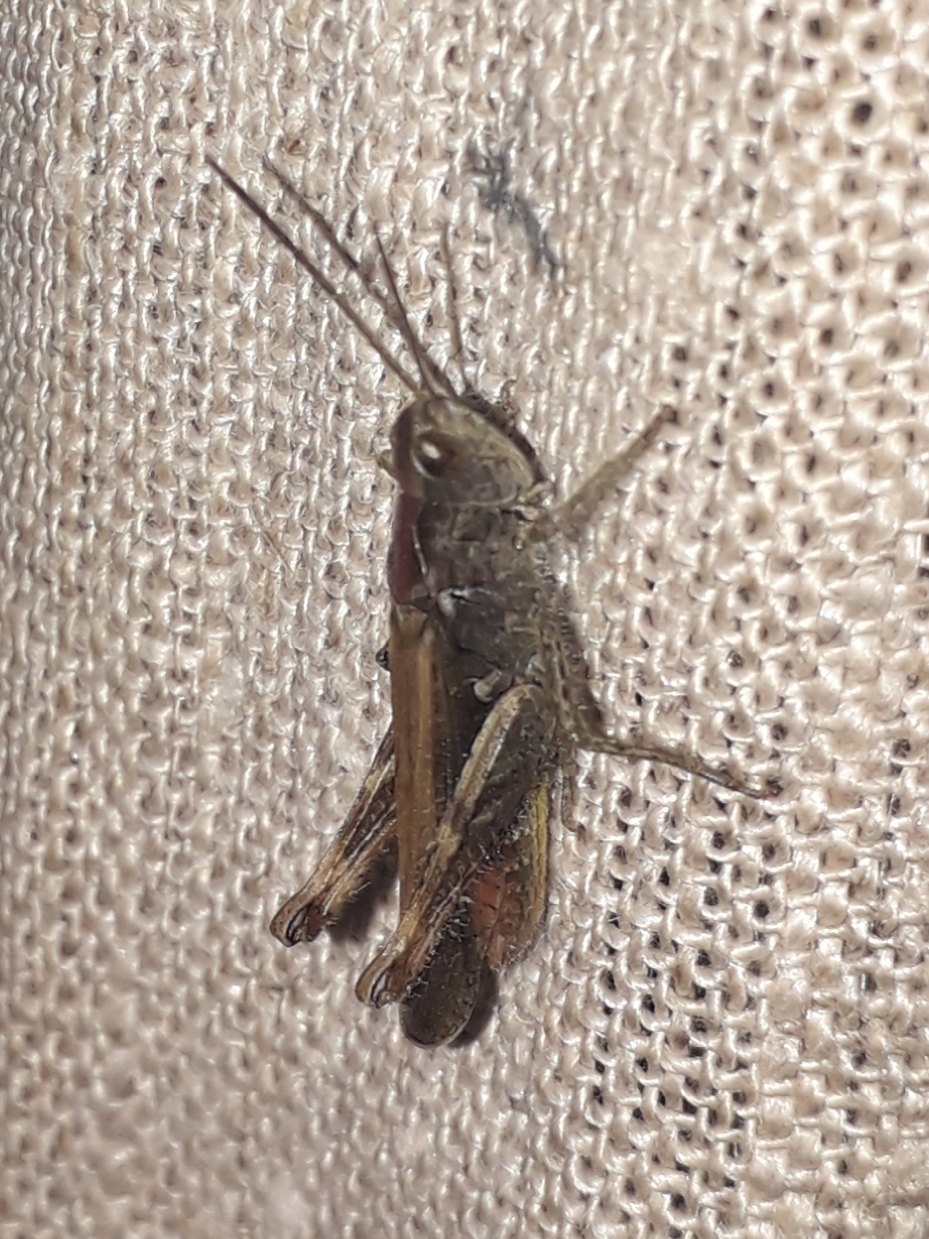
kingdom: Animalia
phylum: Arthropoda
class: Insecta
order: Orthoptera
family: Acrididae
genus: Chorthippus
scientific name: Chorthippus biguttulus
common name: Bow-winged grasshopper
